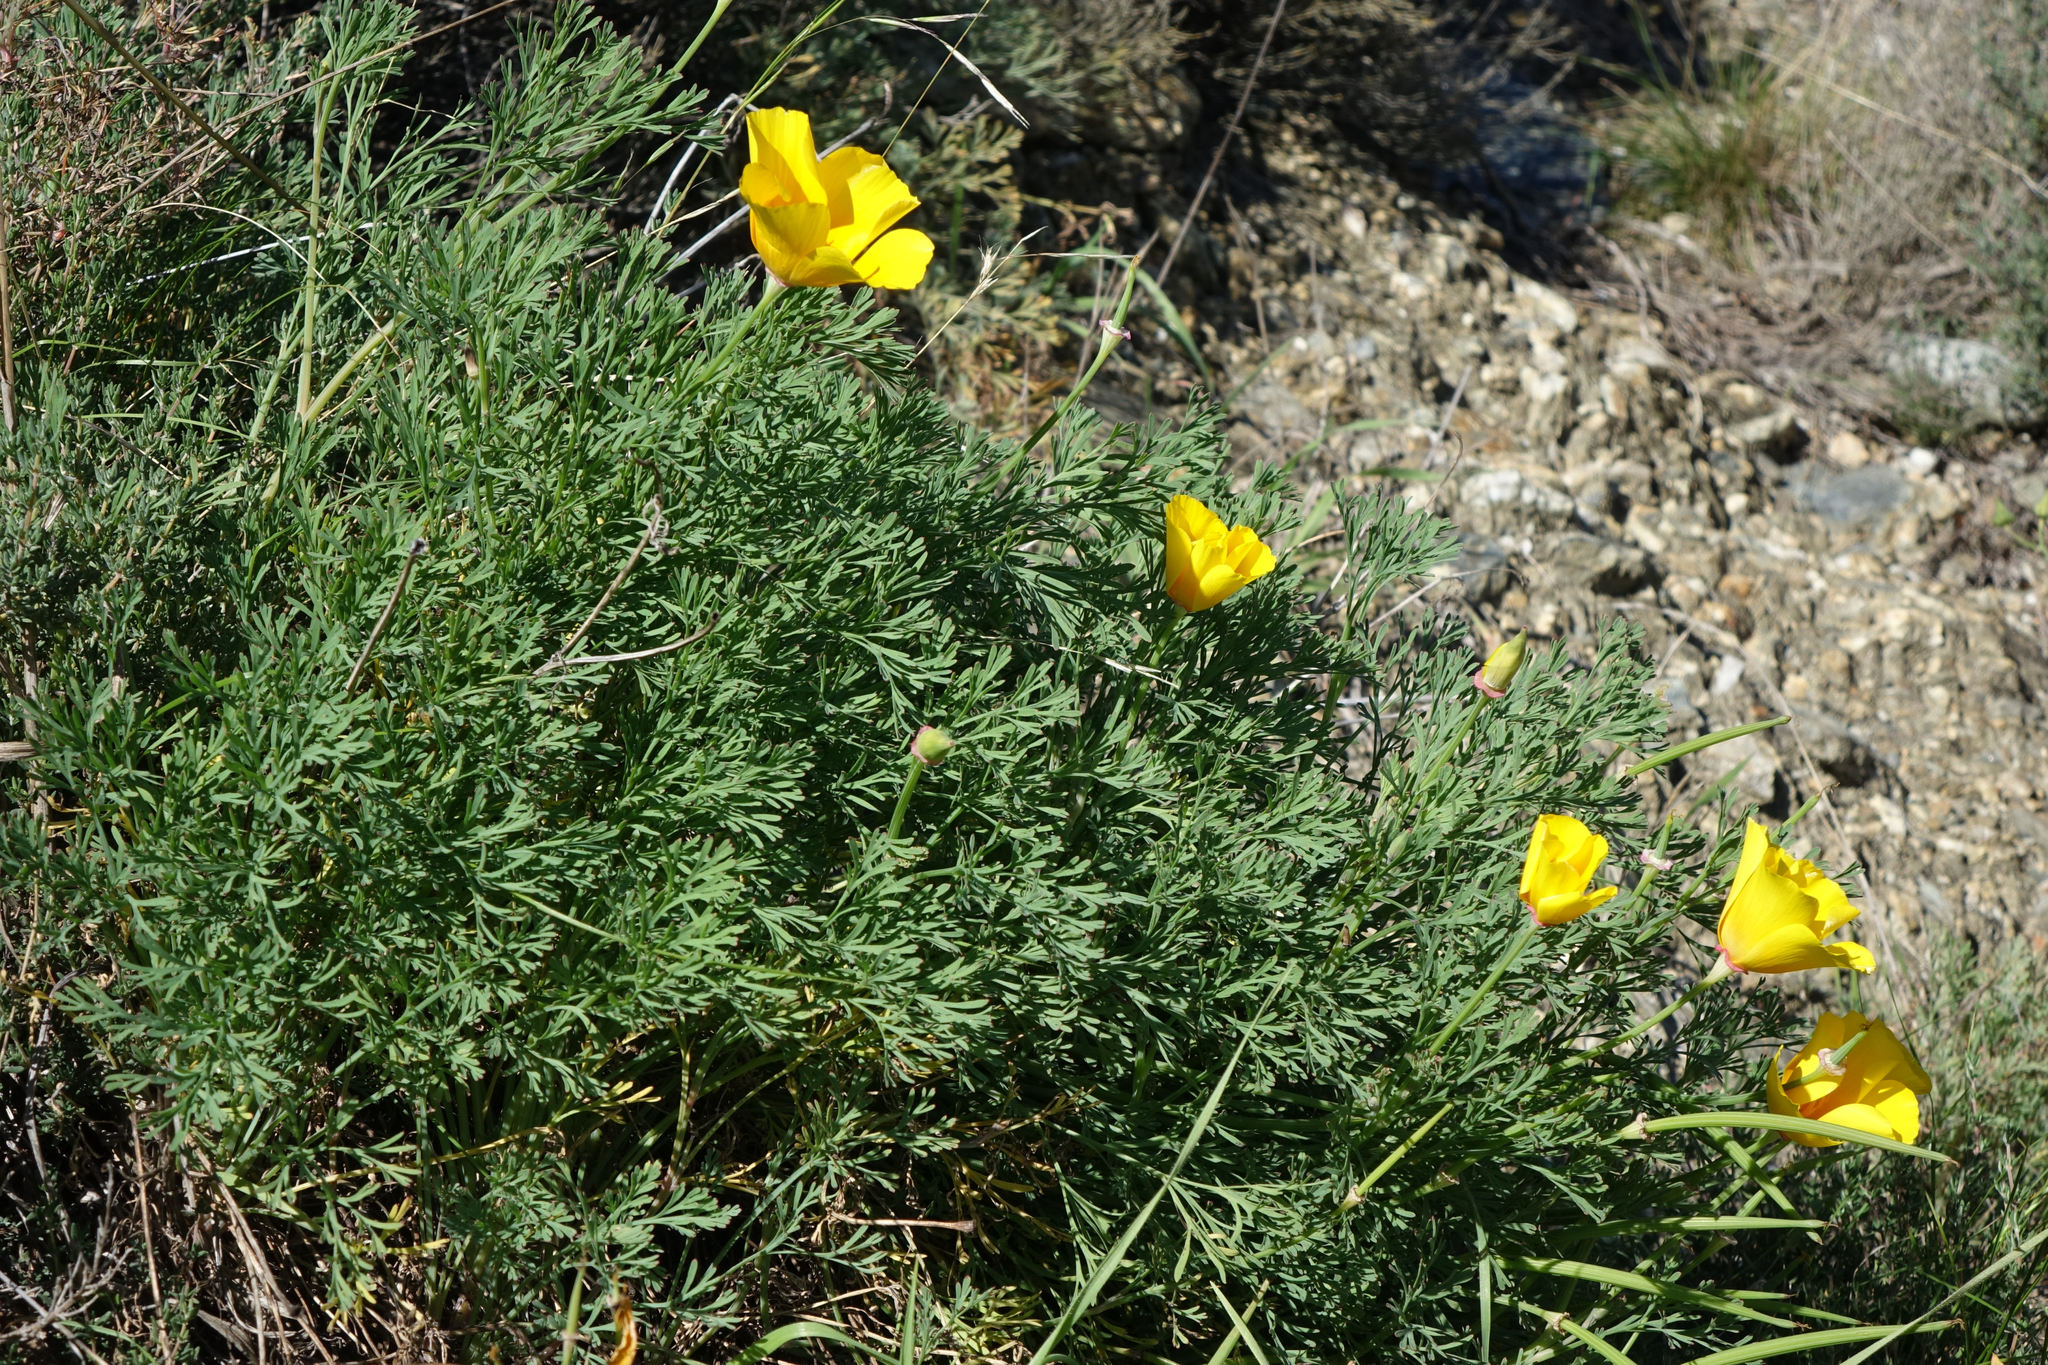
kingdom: Plantae
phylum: Tracheophyta
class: Magnoliopsida
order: Ranunculales
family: Papaveraceae
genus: Eschscholzia
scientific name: Eschscholzia californica
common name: California poppy
